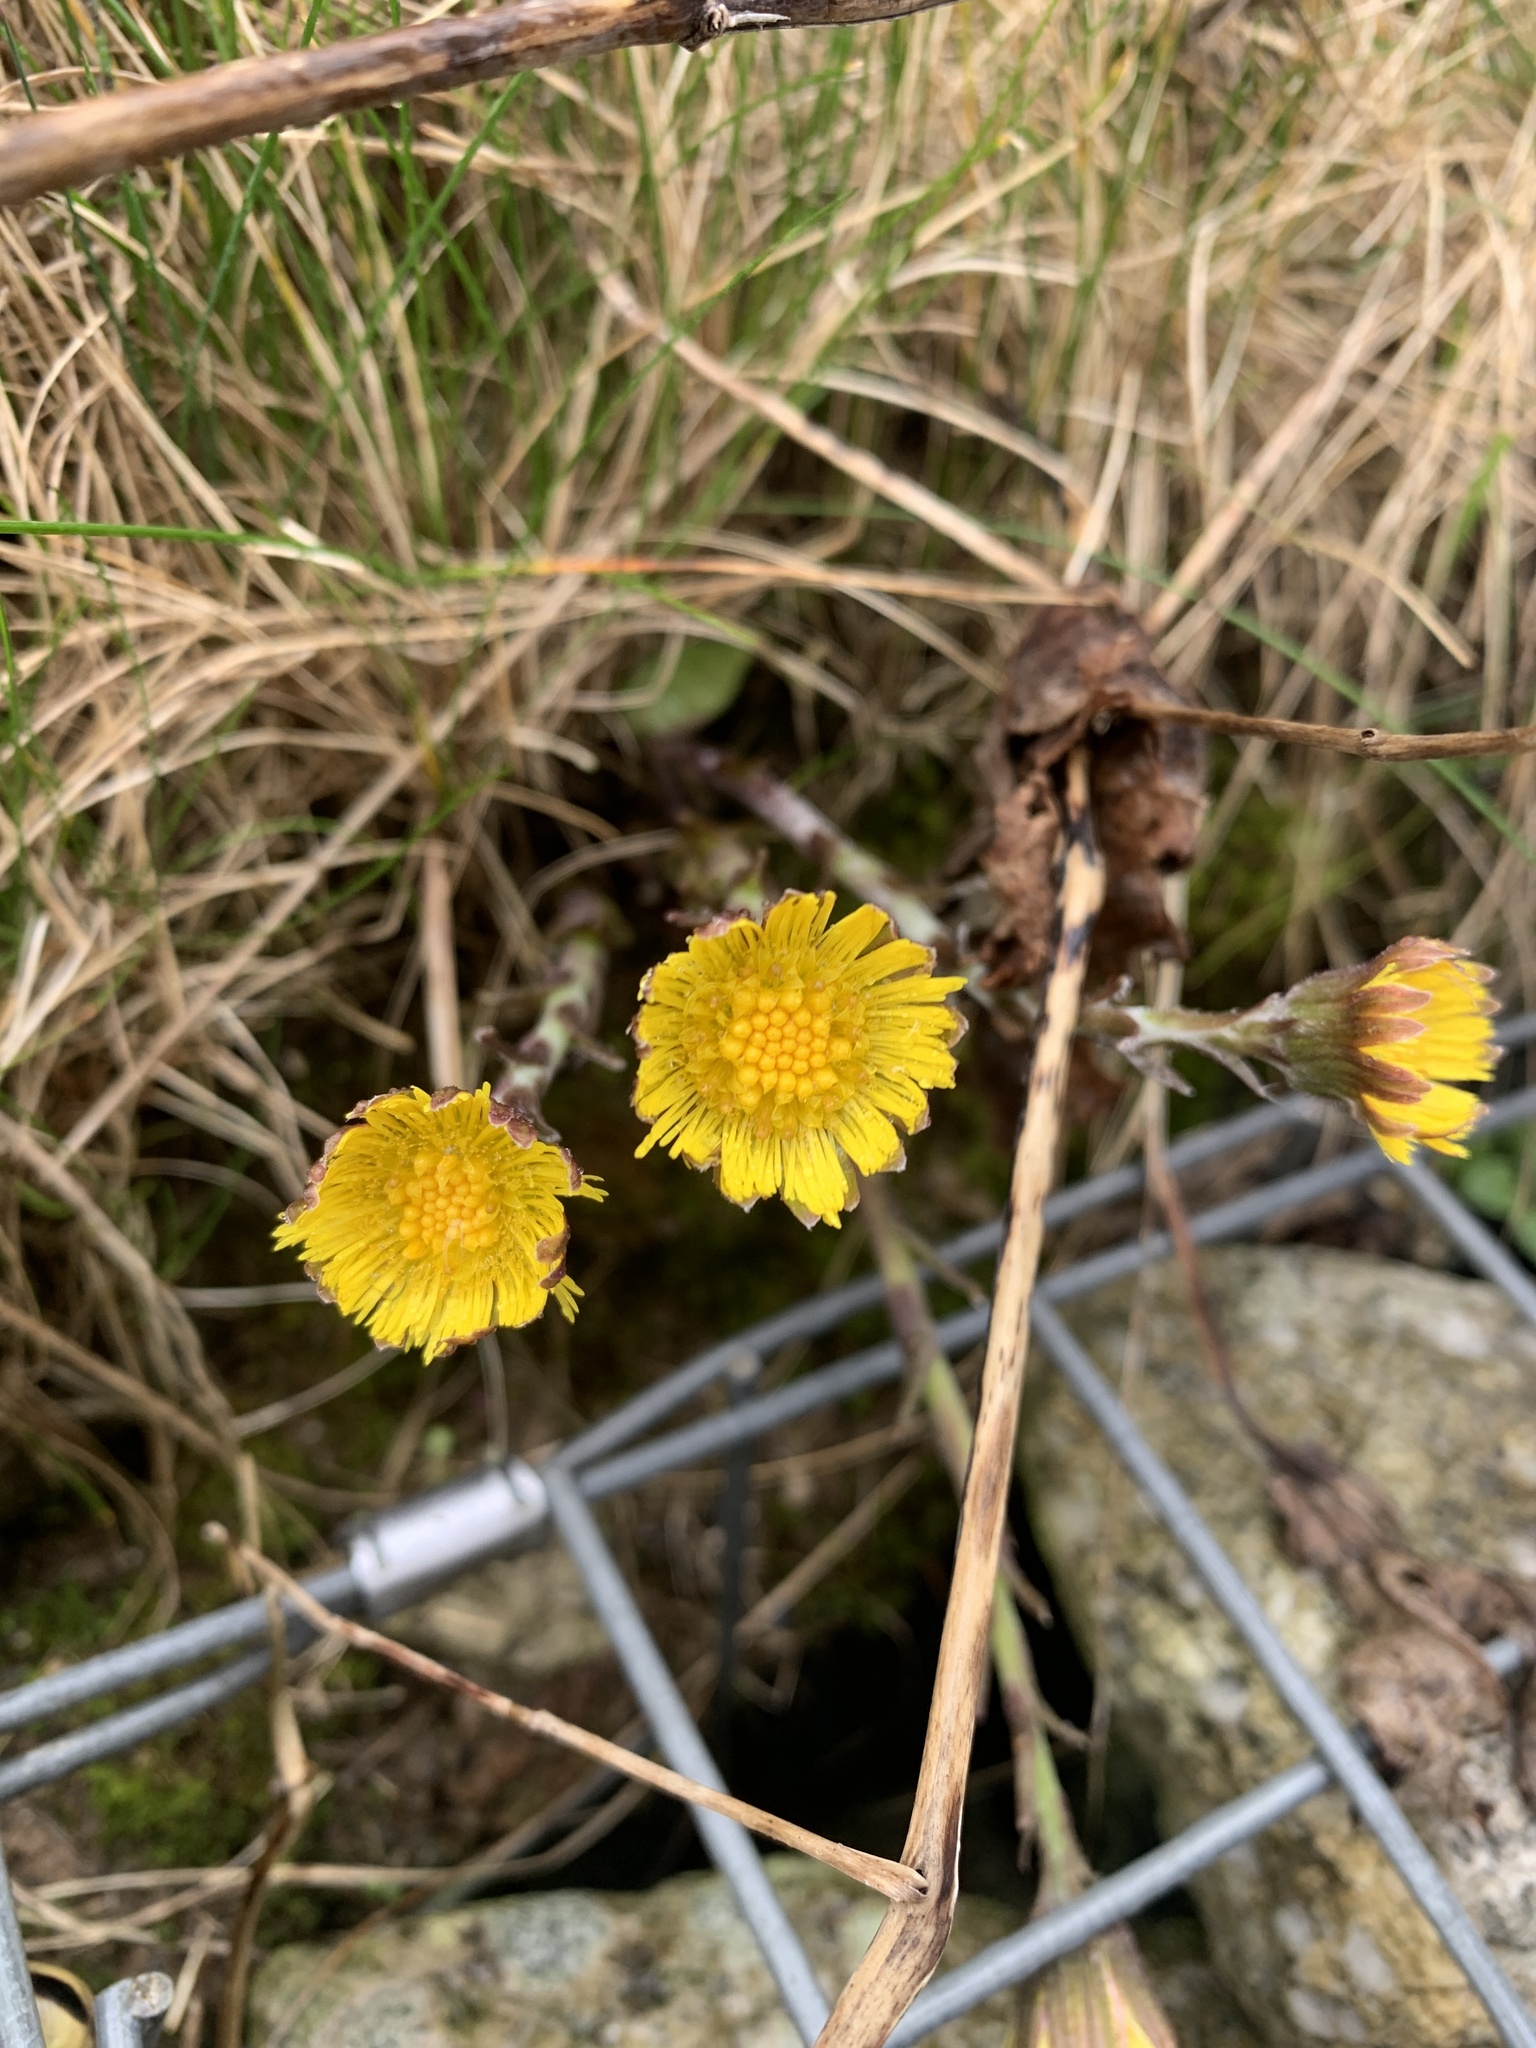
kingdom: Plantae
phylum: Tracheophyta
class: Magnoliopsida
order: Asterales
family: Asteraceae
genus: Tussilago
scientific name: Tussilago farfara
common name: Coltsfoot
